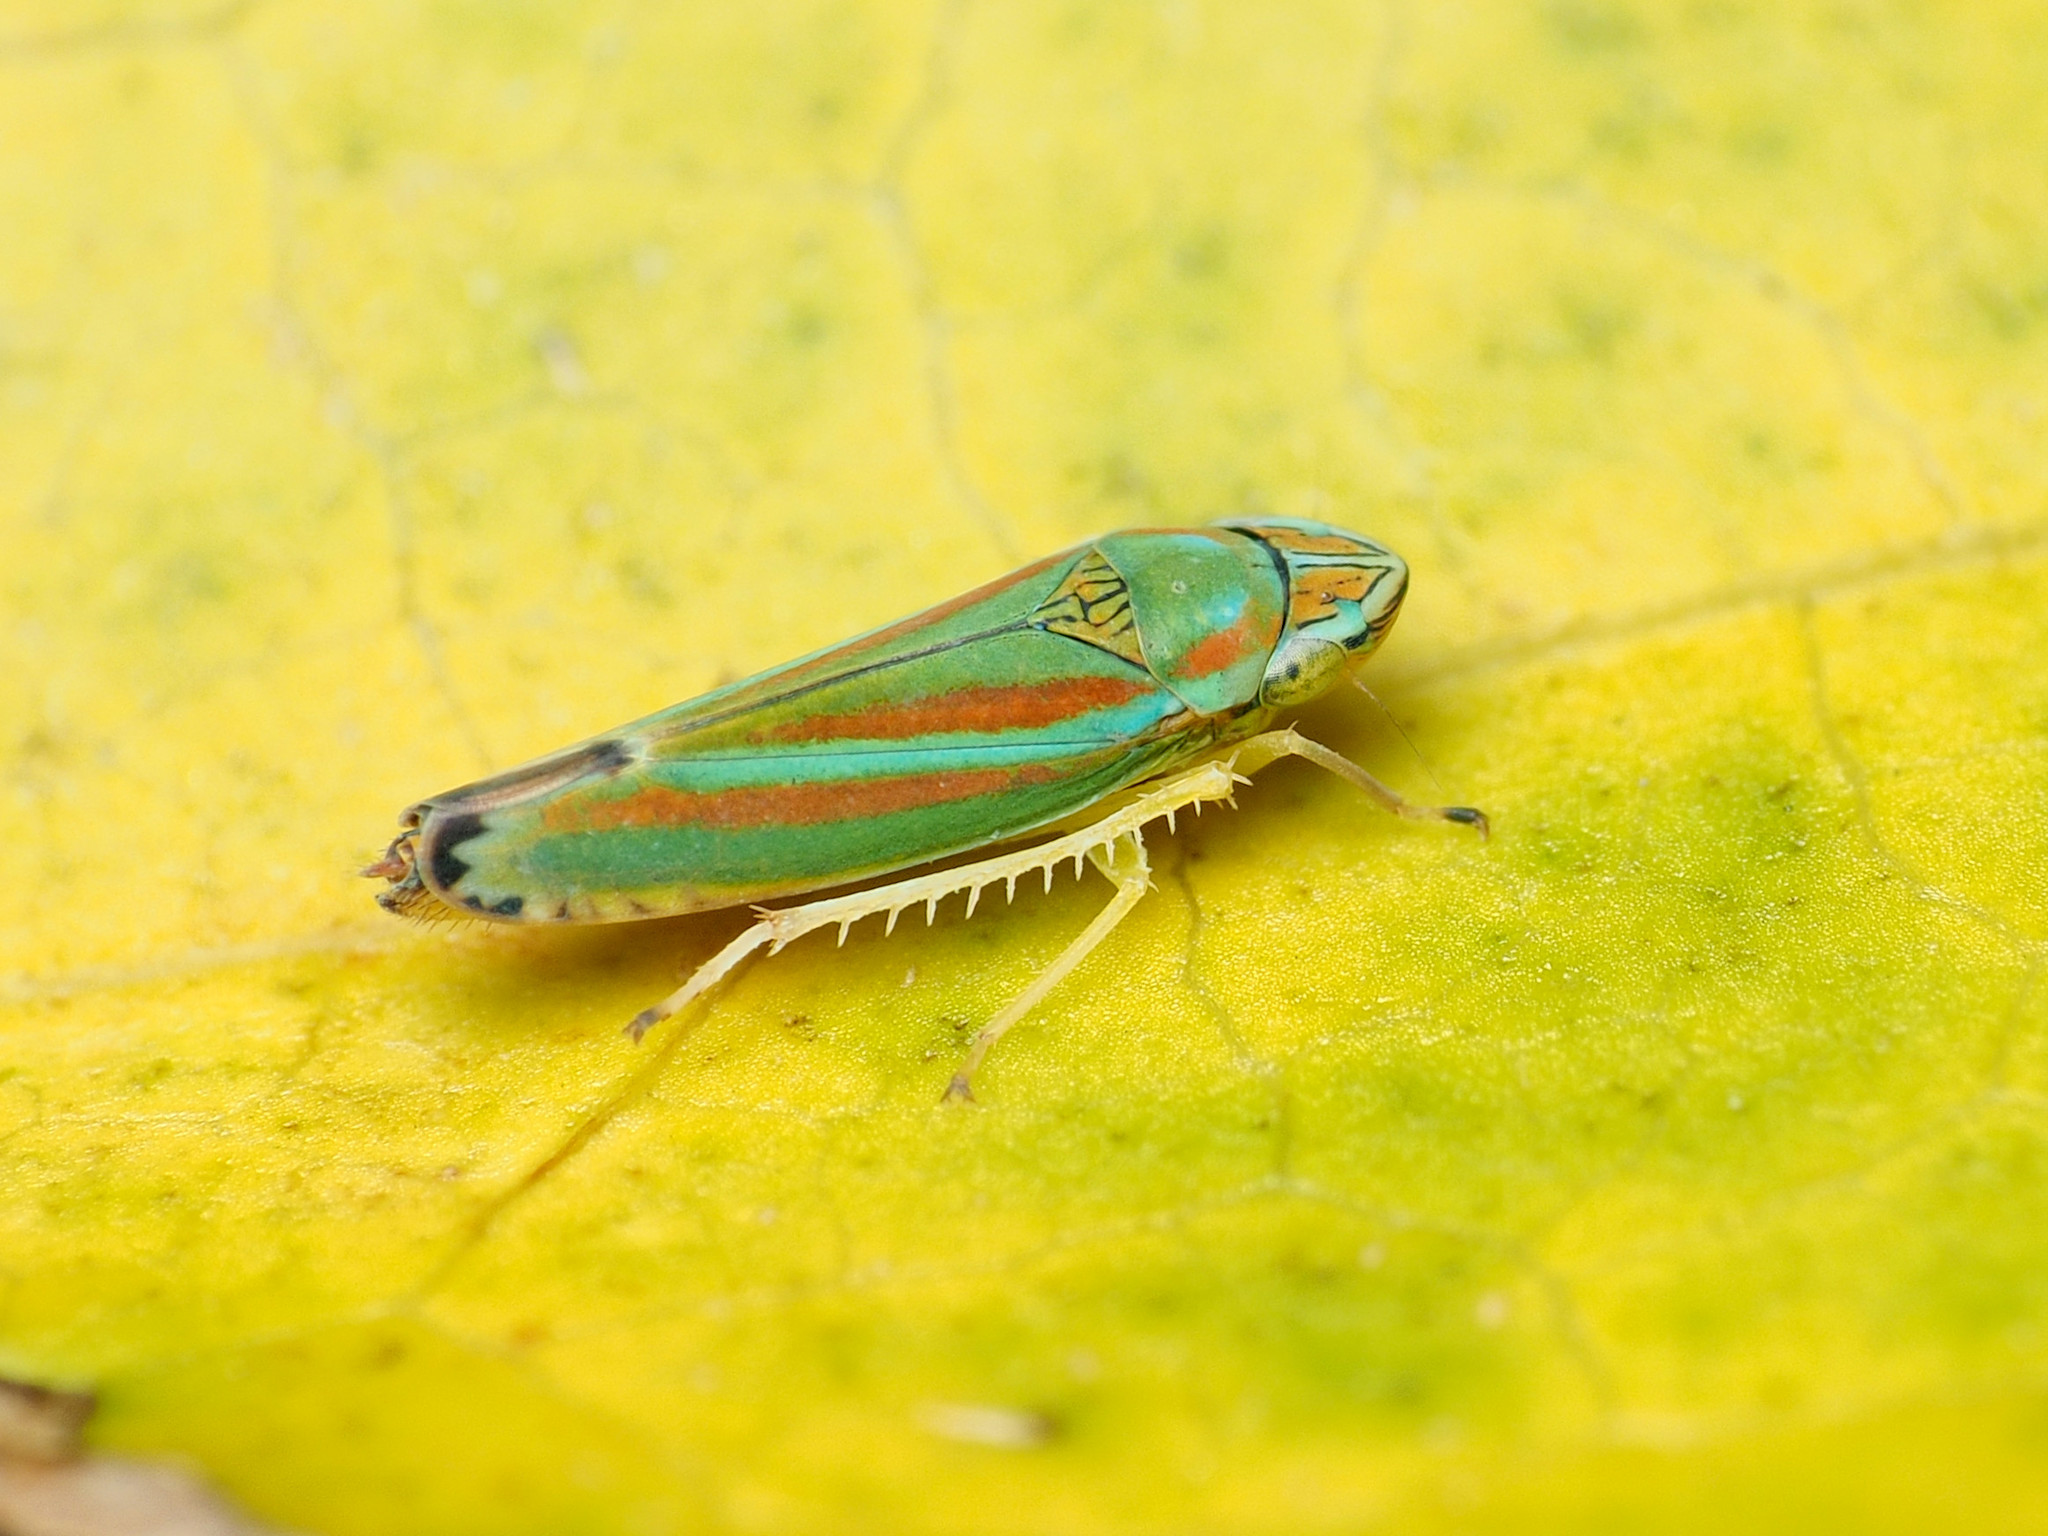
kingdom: Animalia
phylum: Arthropoda
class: Insecta
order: Hemiptera
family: Cicadellidae
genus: Graphocephala
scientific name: Graphocephala versuta
